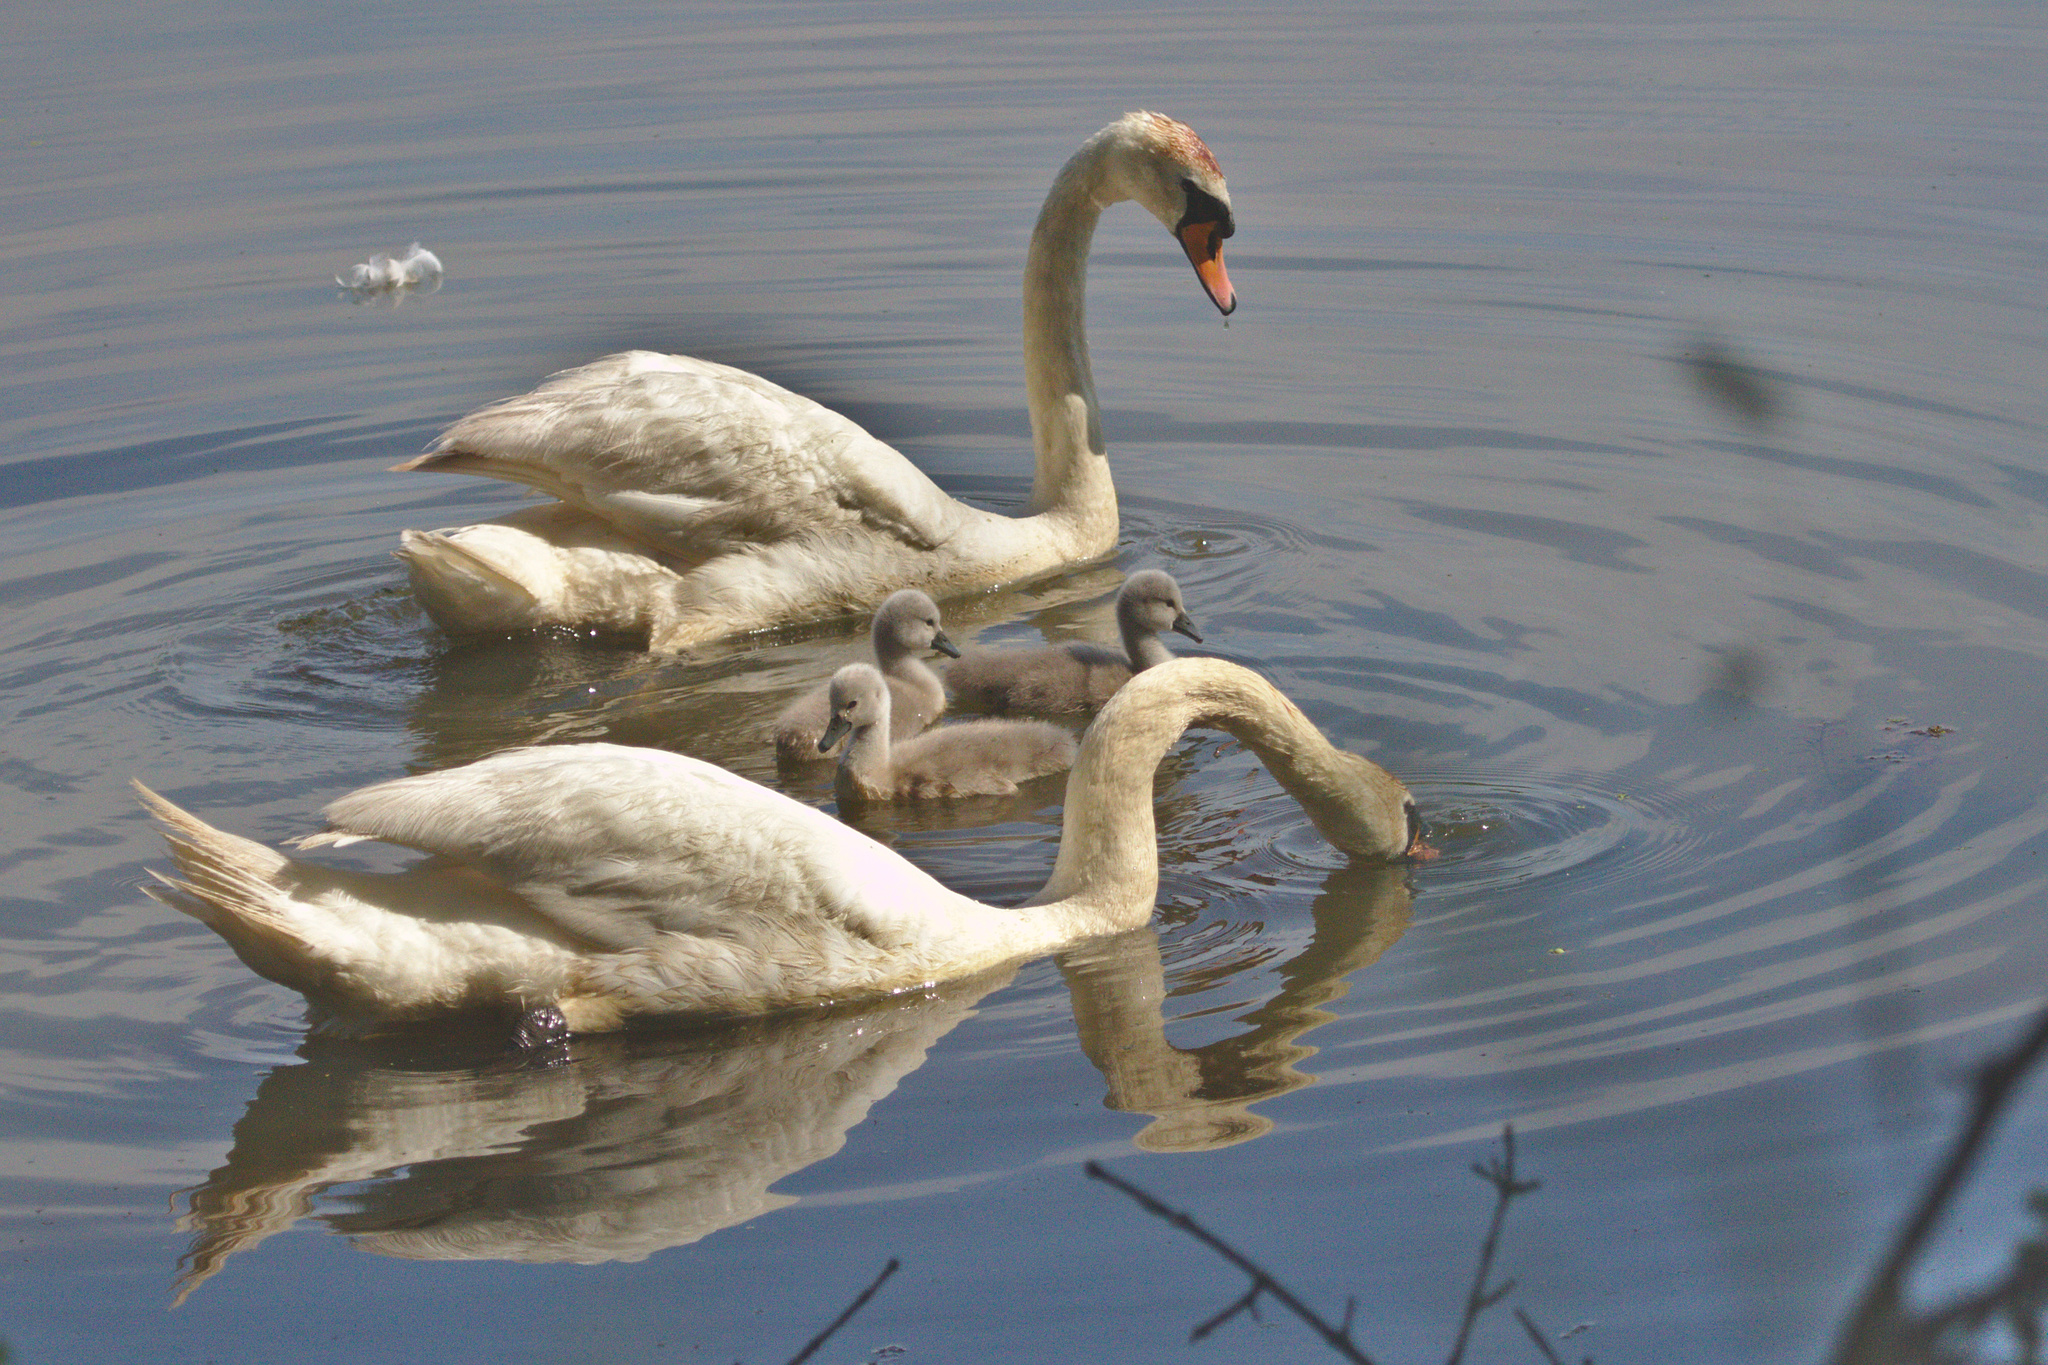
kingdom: Animalia
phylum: Chordata
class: Aves
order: Anseriformes
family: Anatidae
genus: Cygnus
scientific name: Cygnus olor
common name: Mute swan
